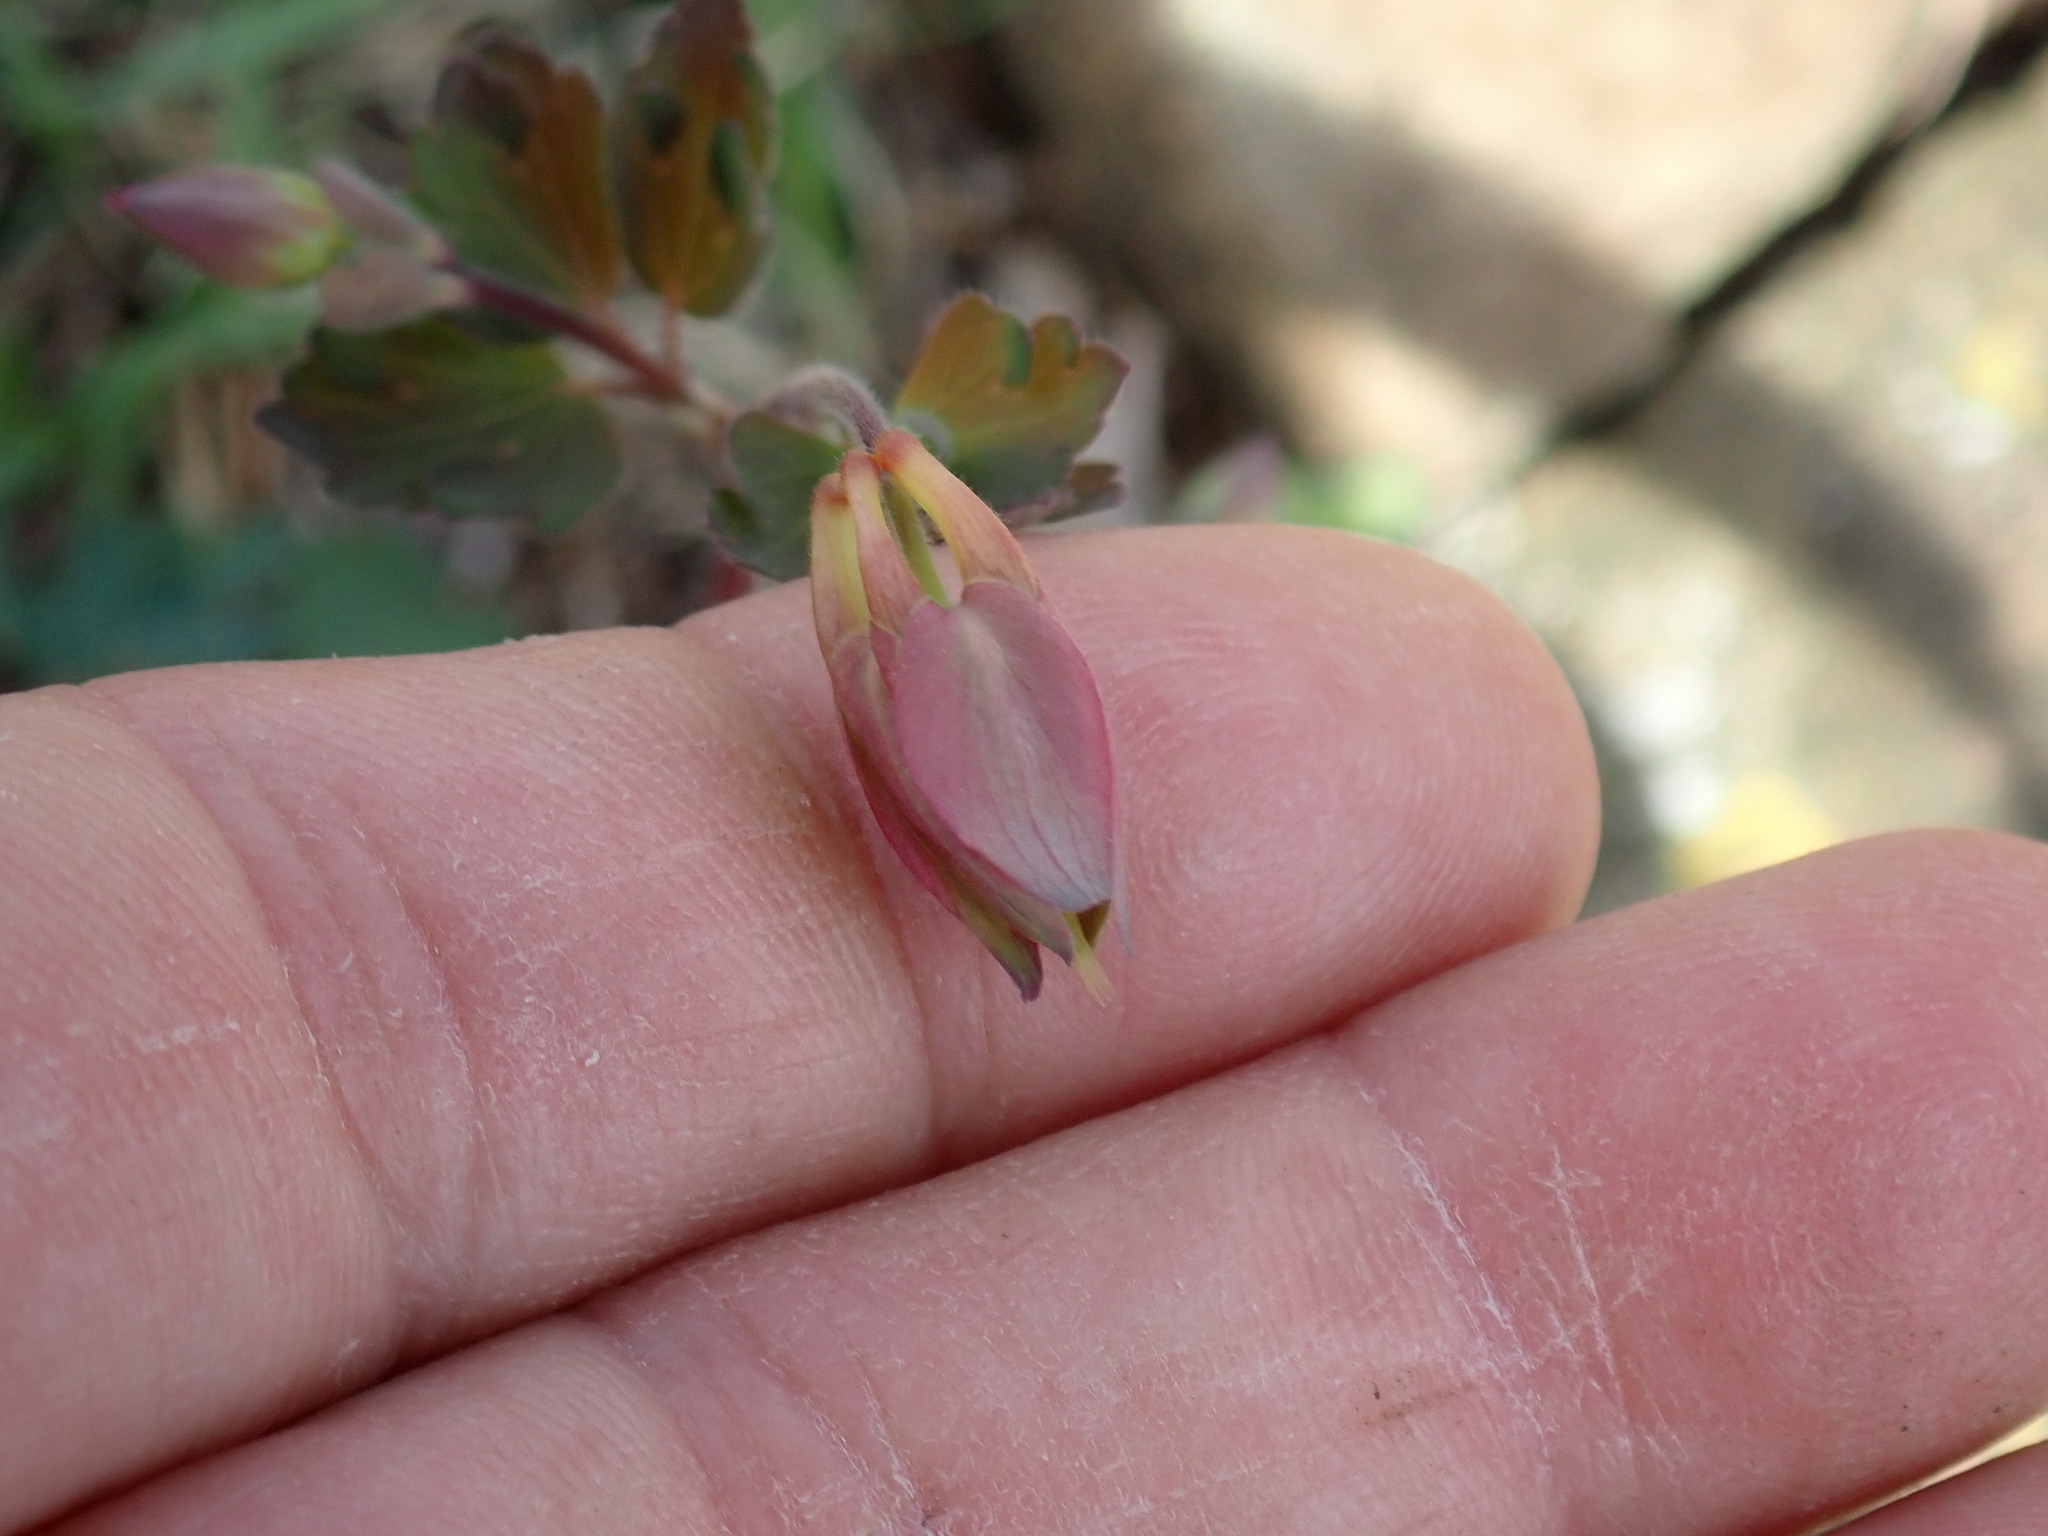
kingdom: Plantae
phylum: Tracheophyta
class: Magnoliopsida
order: Ranunculales
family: Ranunculaceae
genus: Aquilegia
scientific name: Aquilegia canadensis
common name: American columbine
